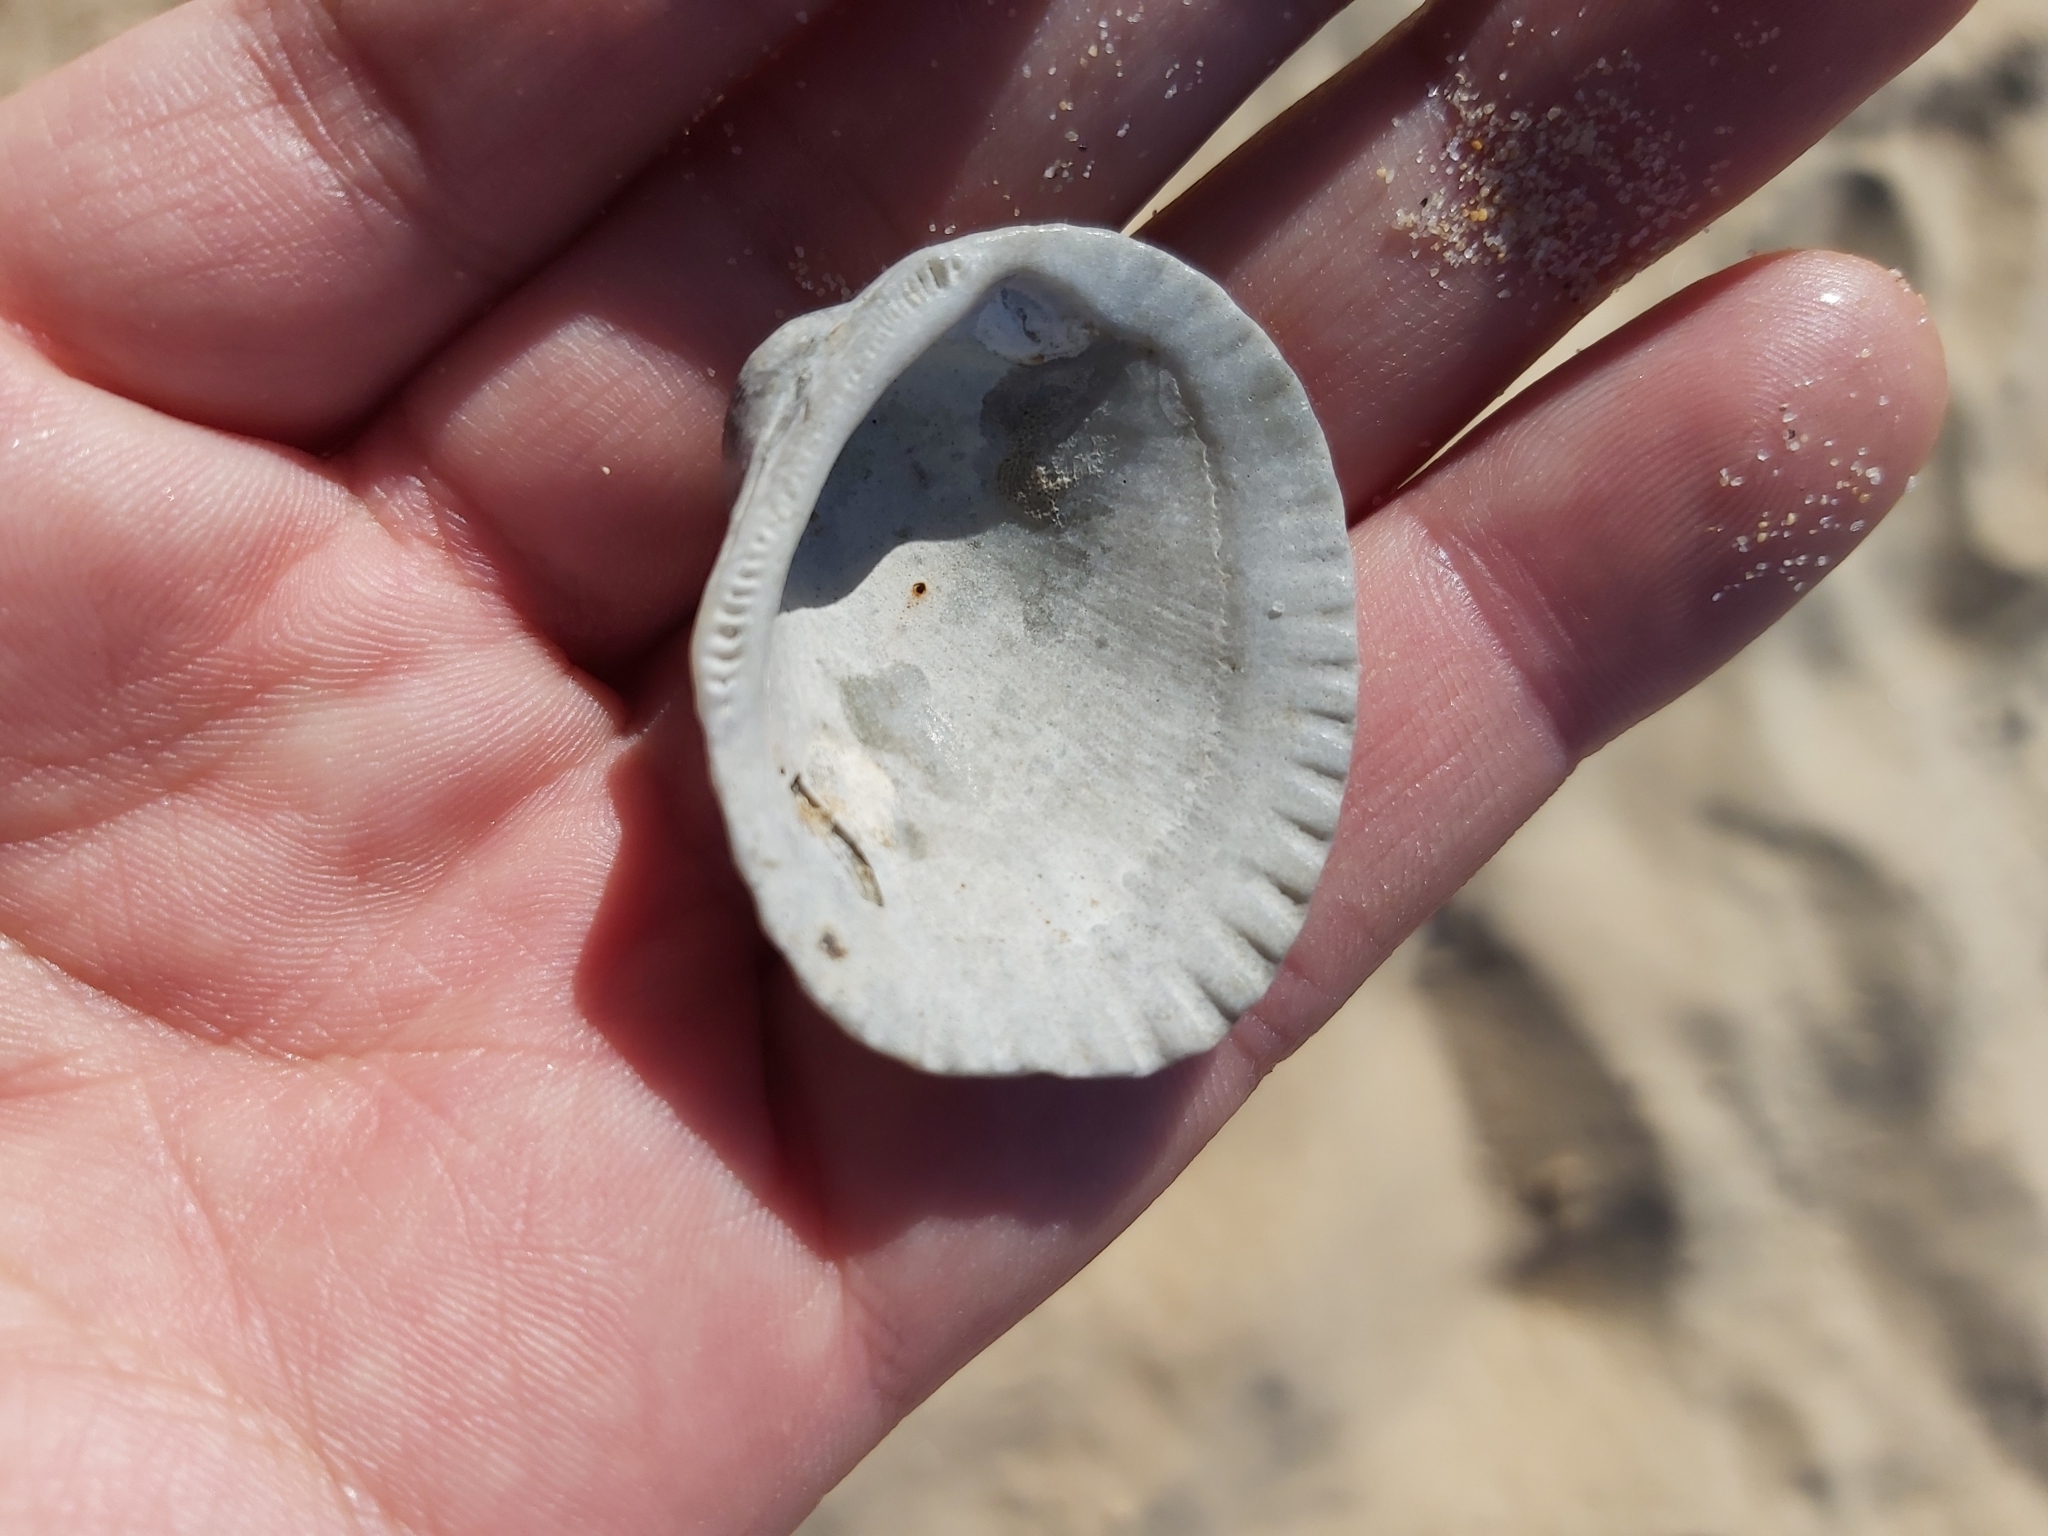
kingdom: Animalia
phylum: Mollusca
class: Bivalvia
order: Arcida
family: Arcidae
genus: Anadara
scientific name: Anadara trapezia
